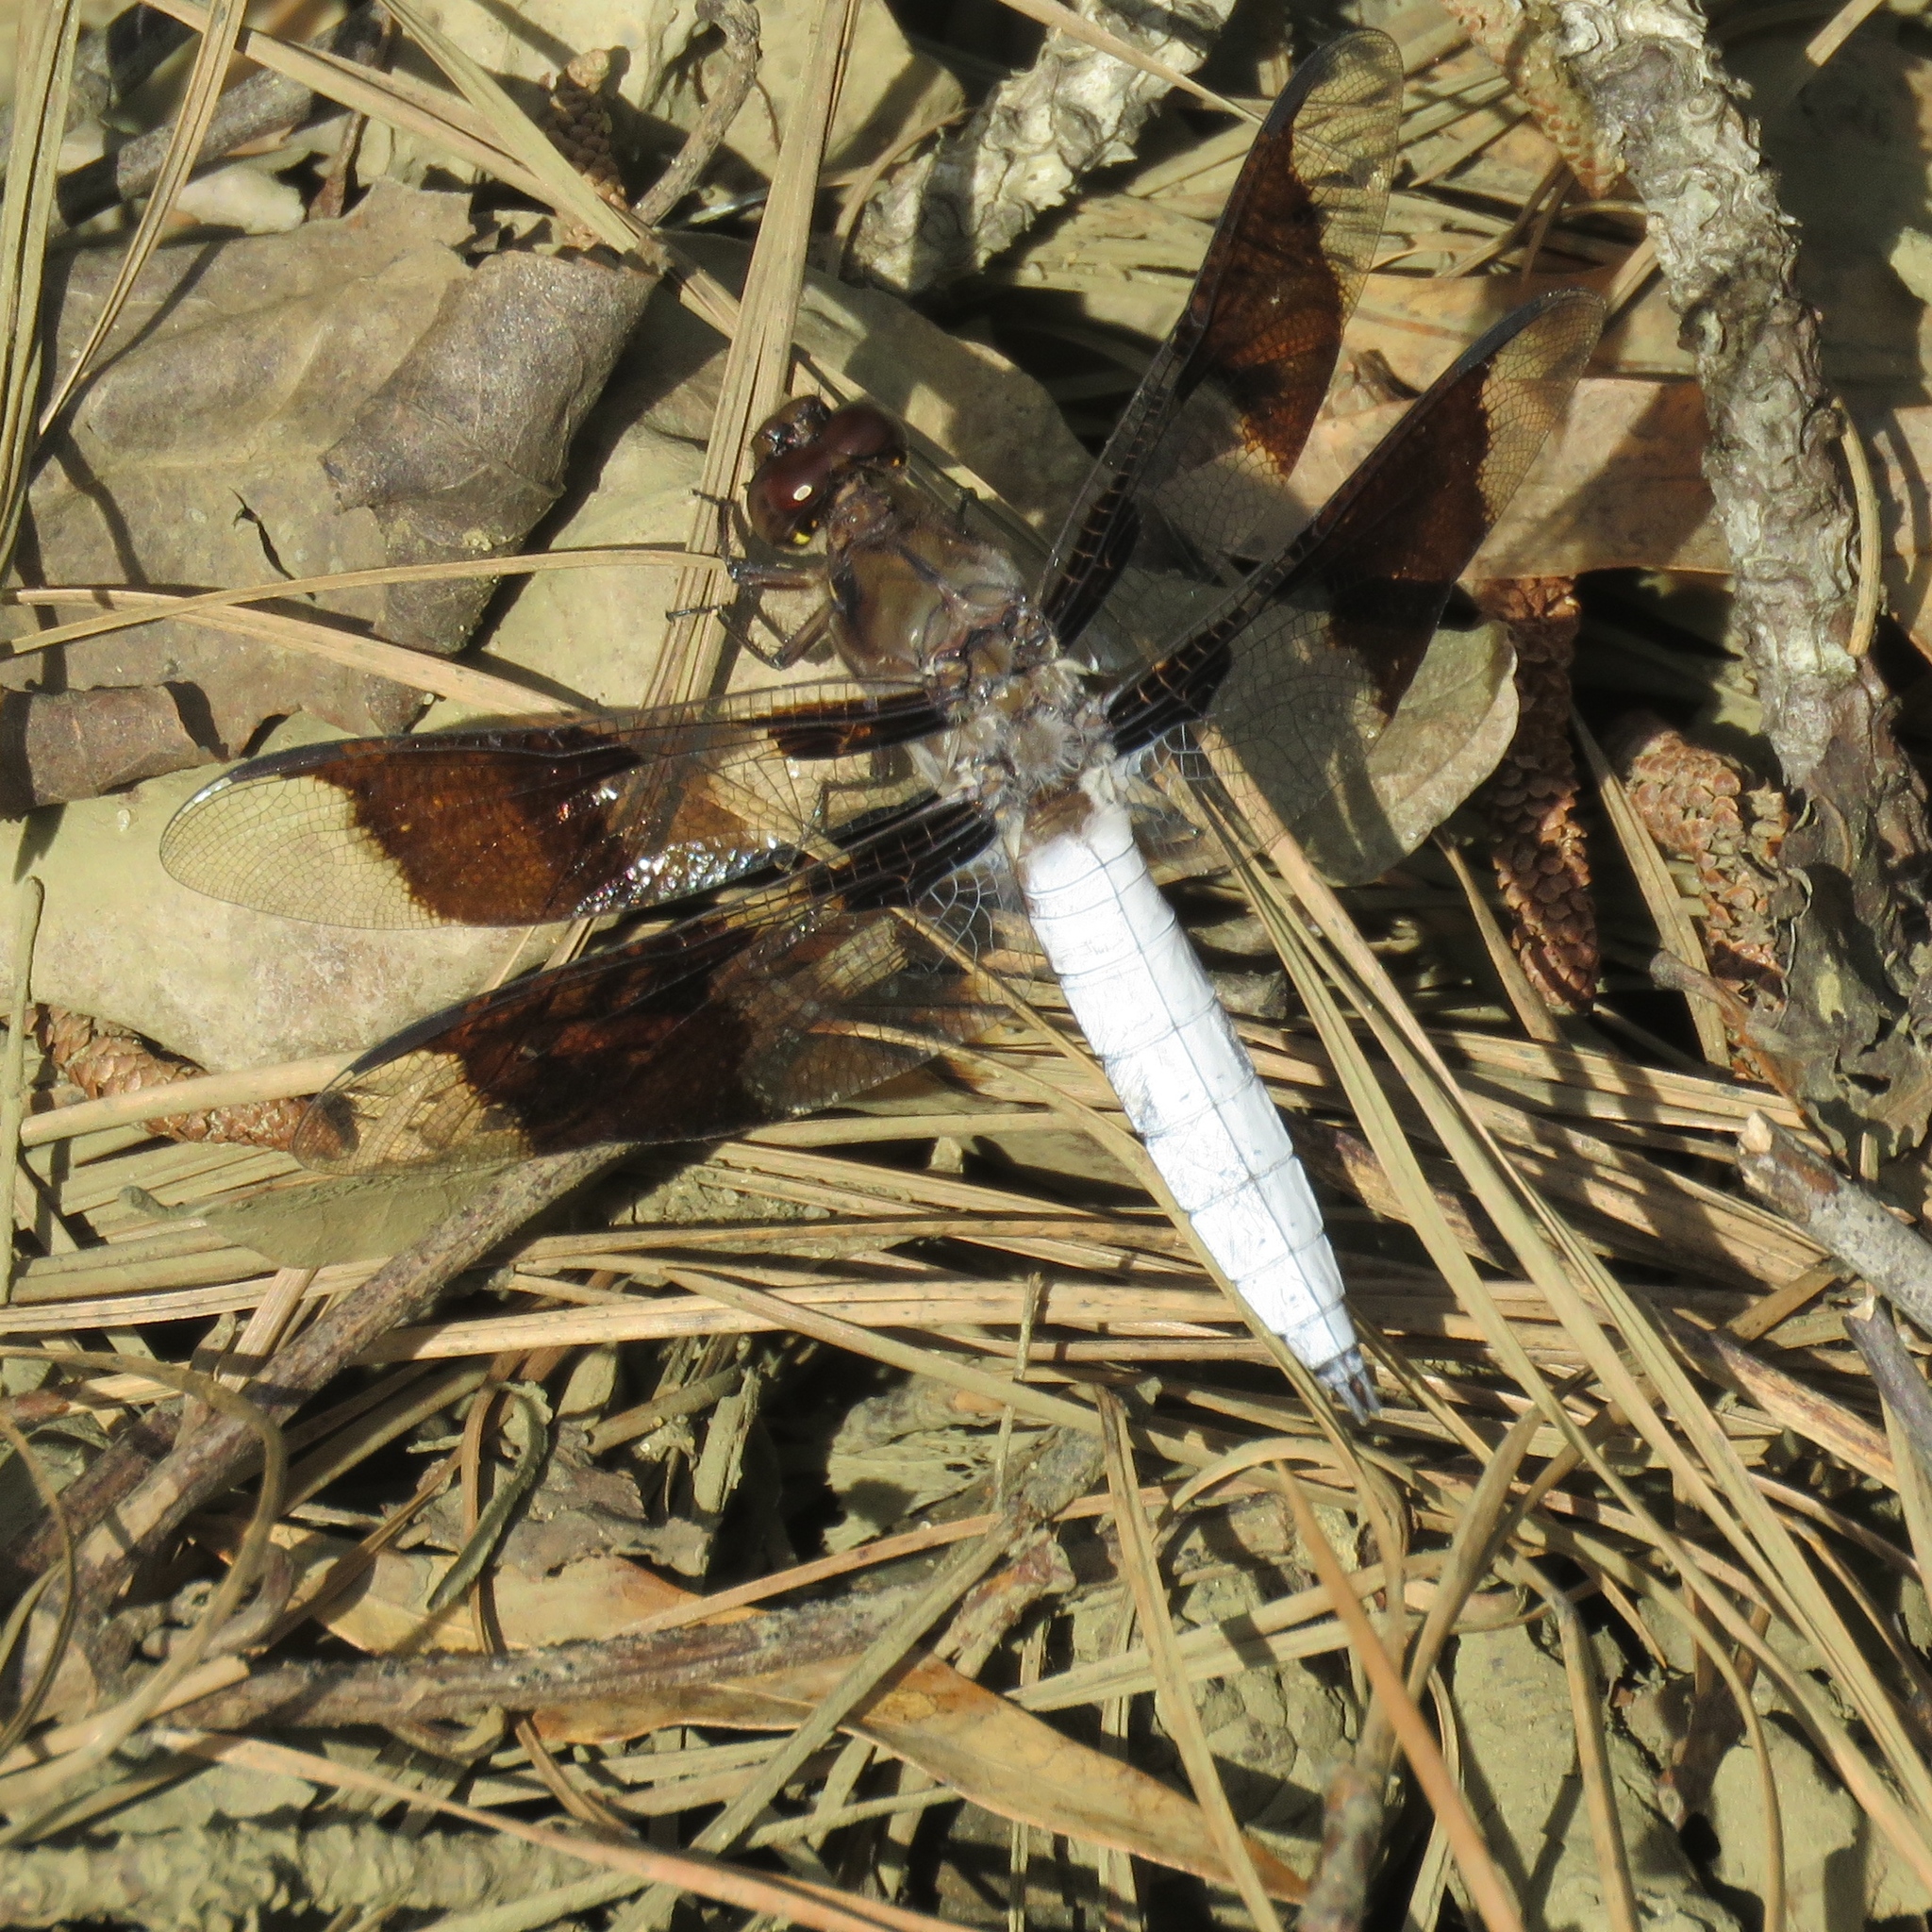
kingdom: Animalia
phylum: Arthropoda
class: Insecta
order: Odonata
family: Libellulidae
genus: Plathemis
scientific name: Plathemis lydia
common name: Common whitetail
